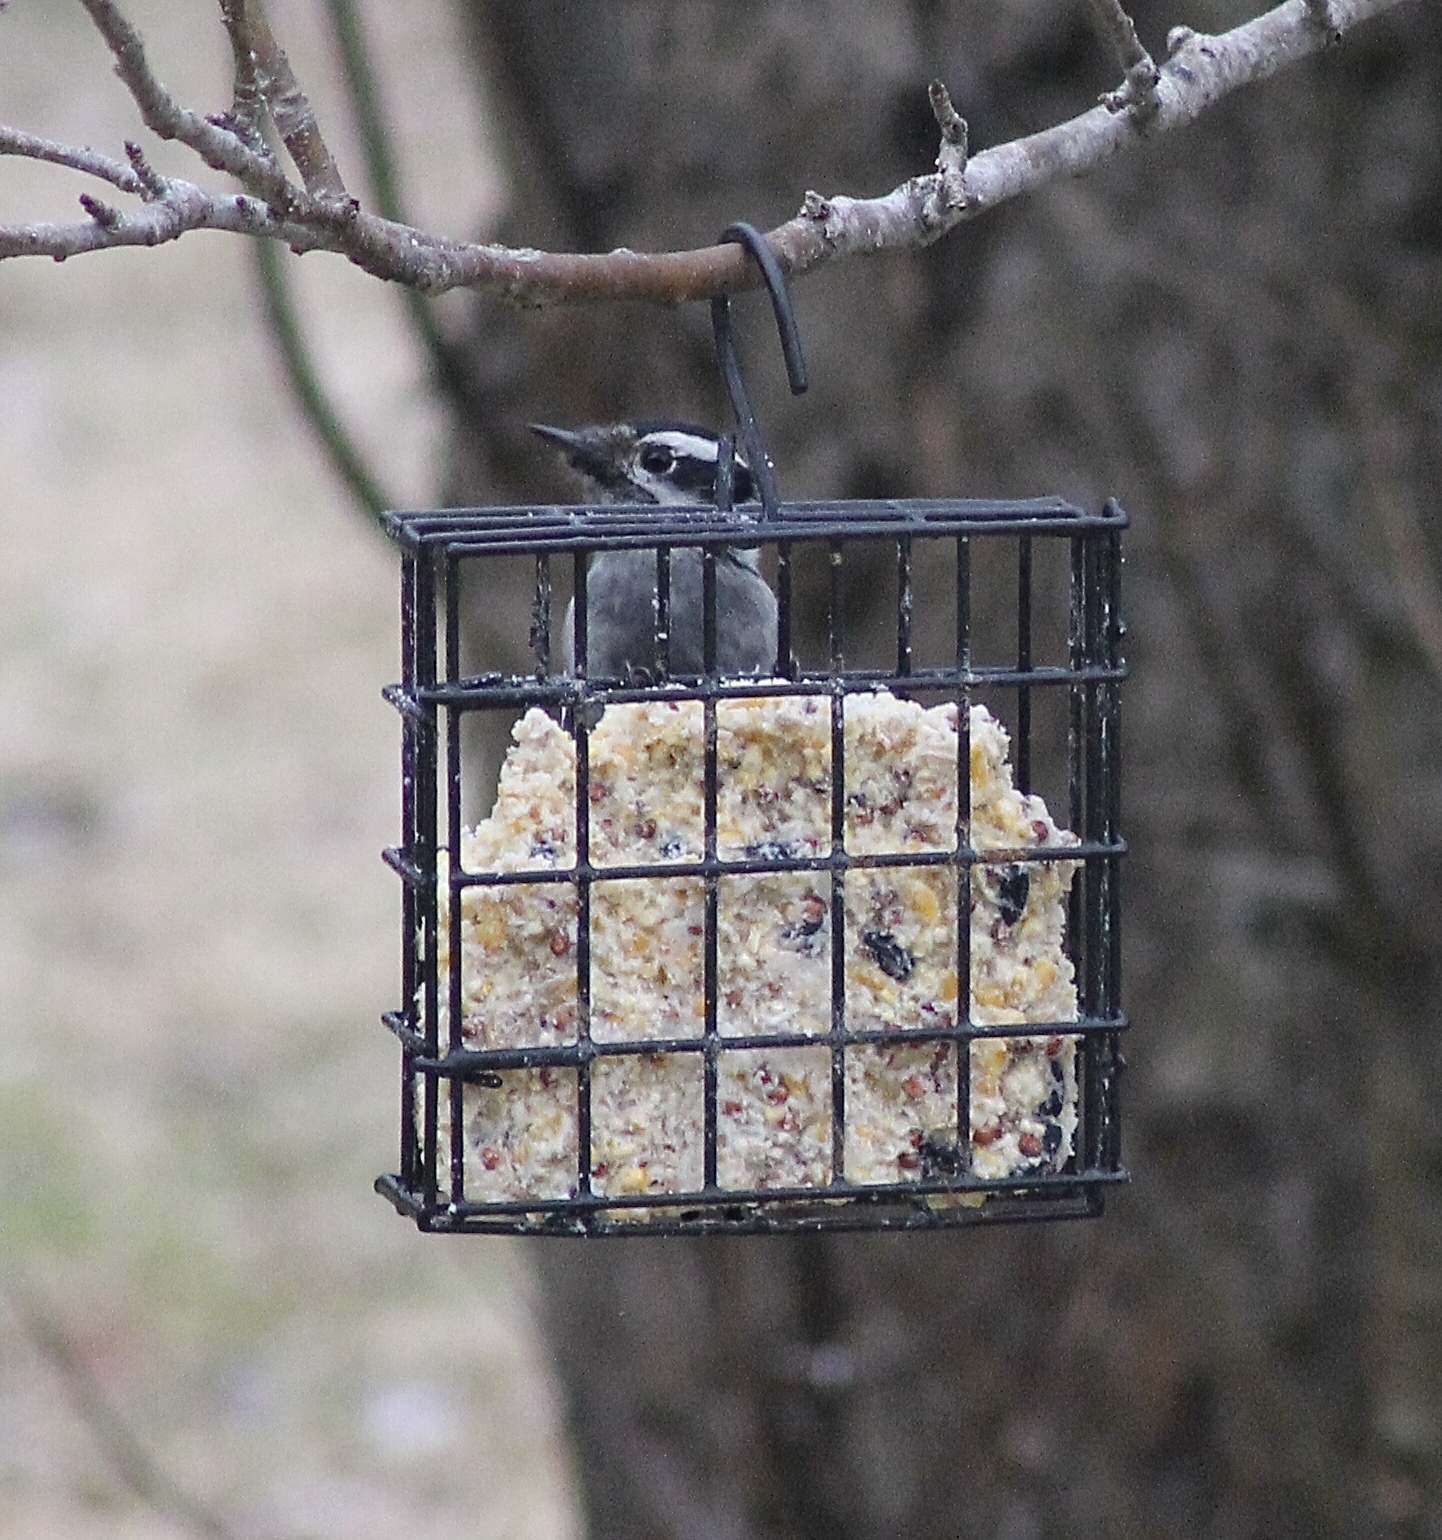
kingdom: Animalia
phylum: Chordata
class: Aves
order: Piciformes
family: Picidae
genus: Dryobates
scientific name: Dryobates pubescens
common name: Downy woodpecker
